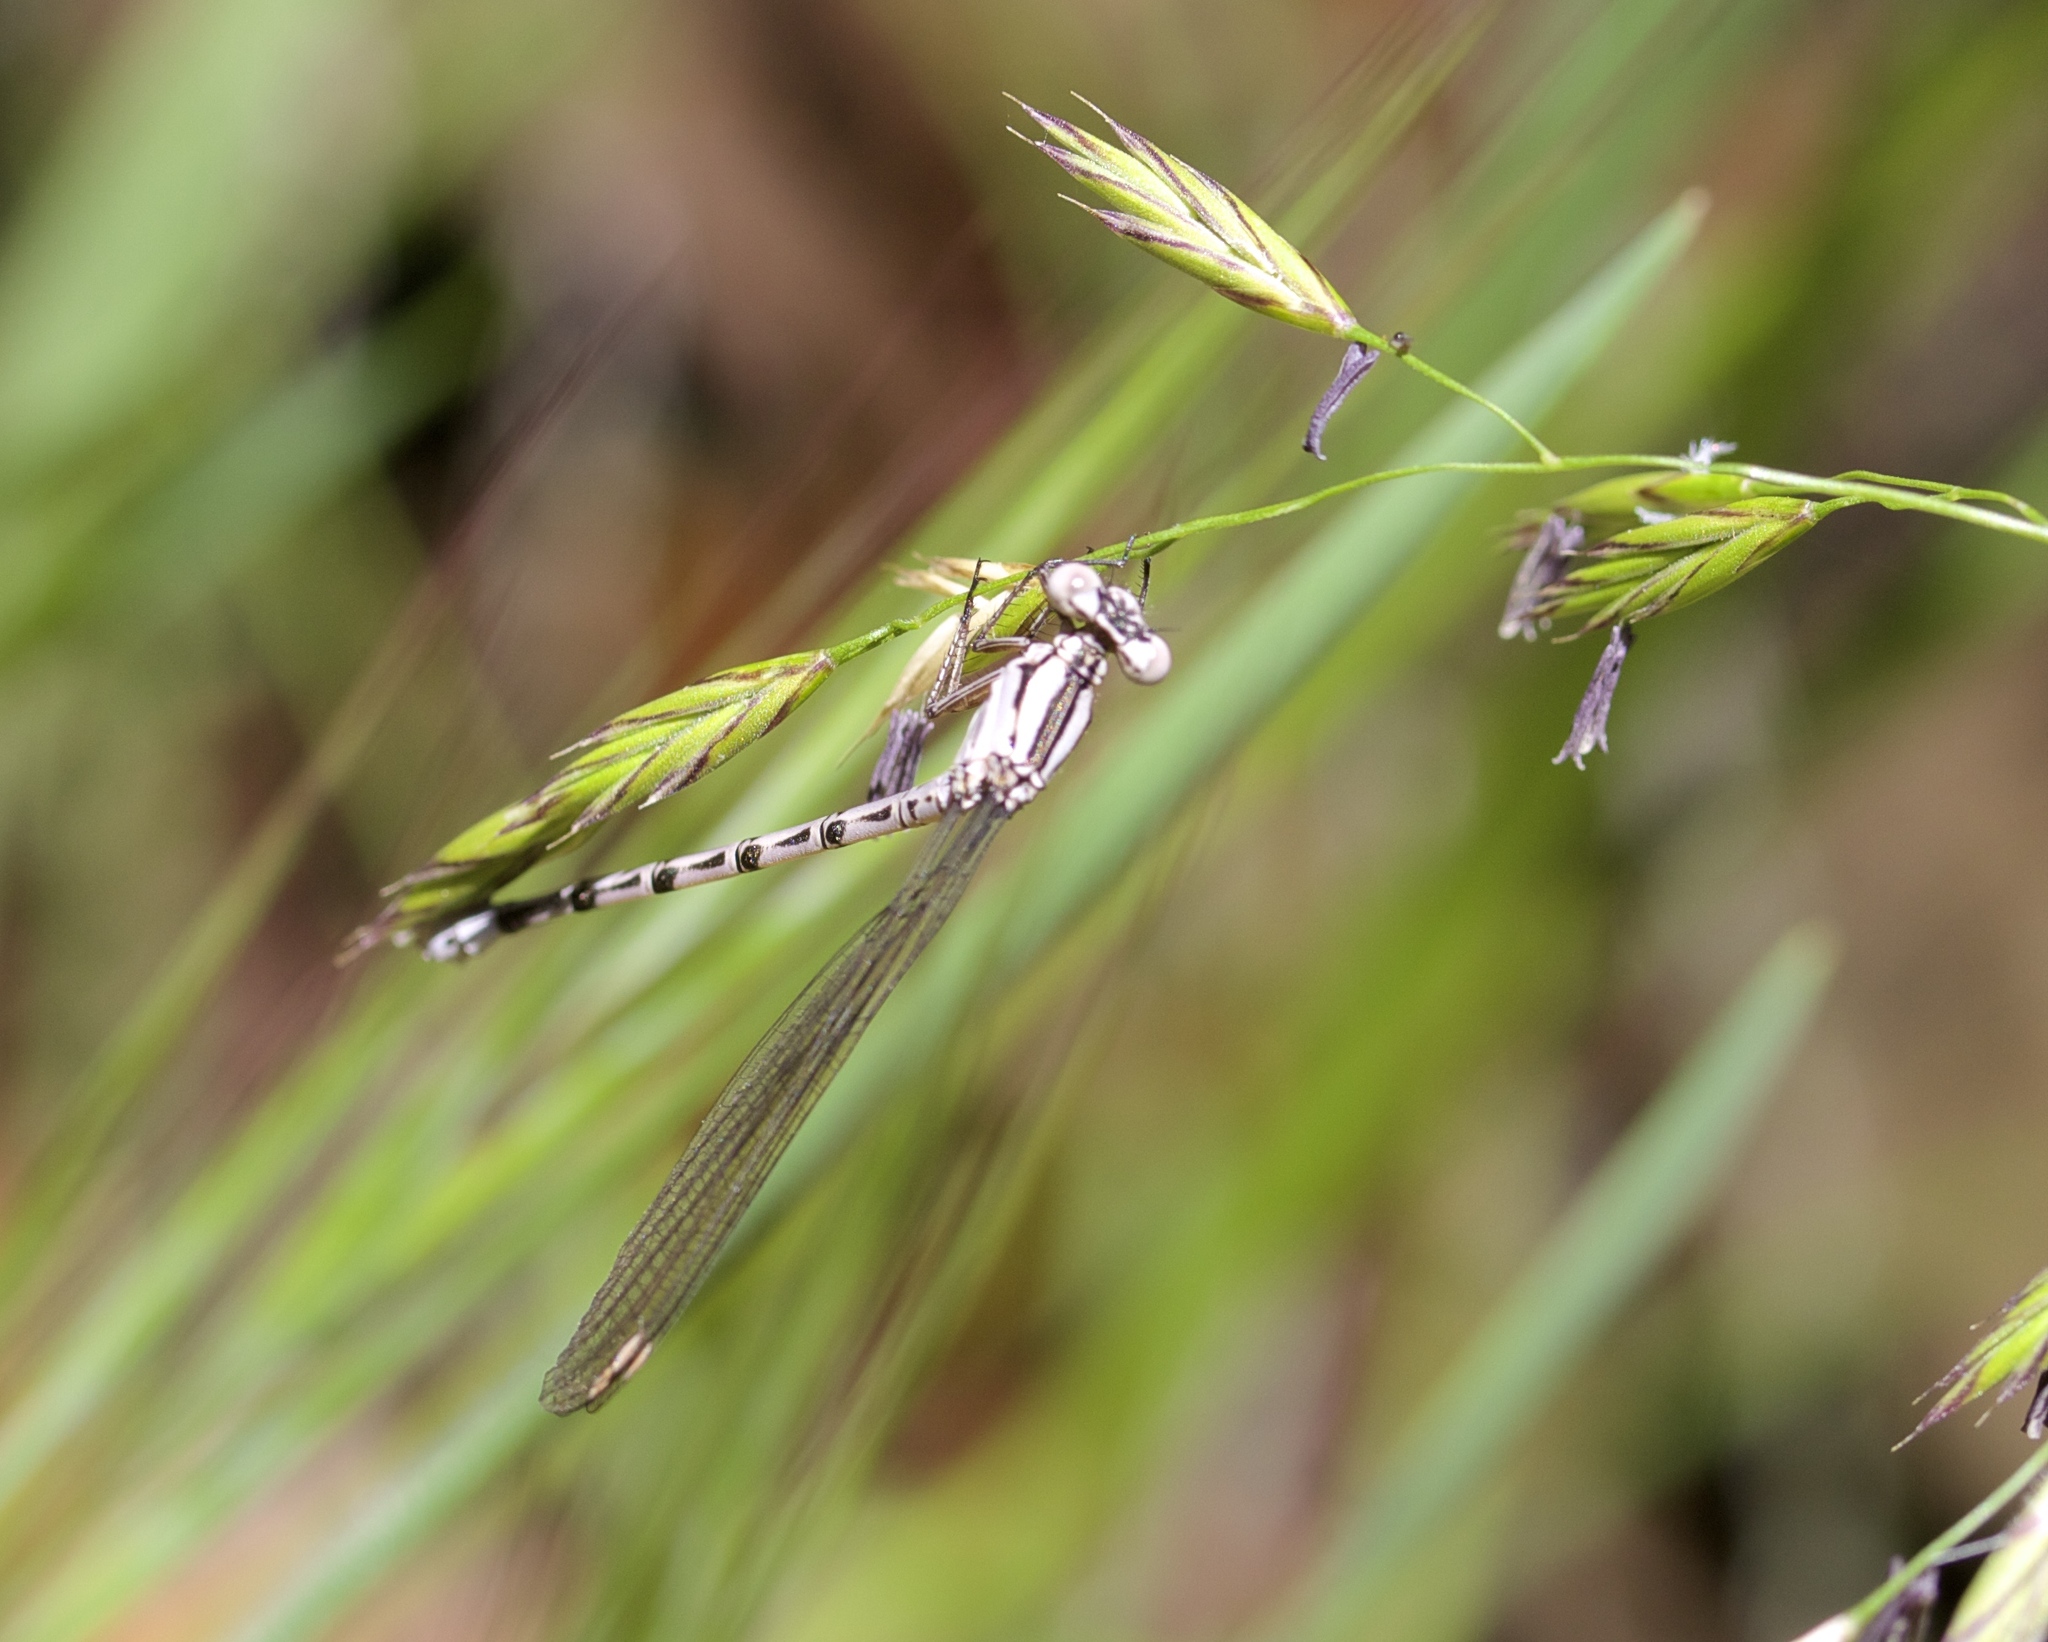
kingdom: Animalia
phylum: Arthropoda
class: Insecta
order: Odonata
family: Coenagrionidae
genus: Argia
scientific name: Argia vivida
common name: Vivid dancer
